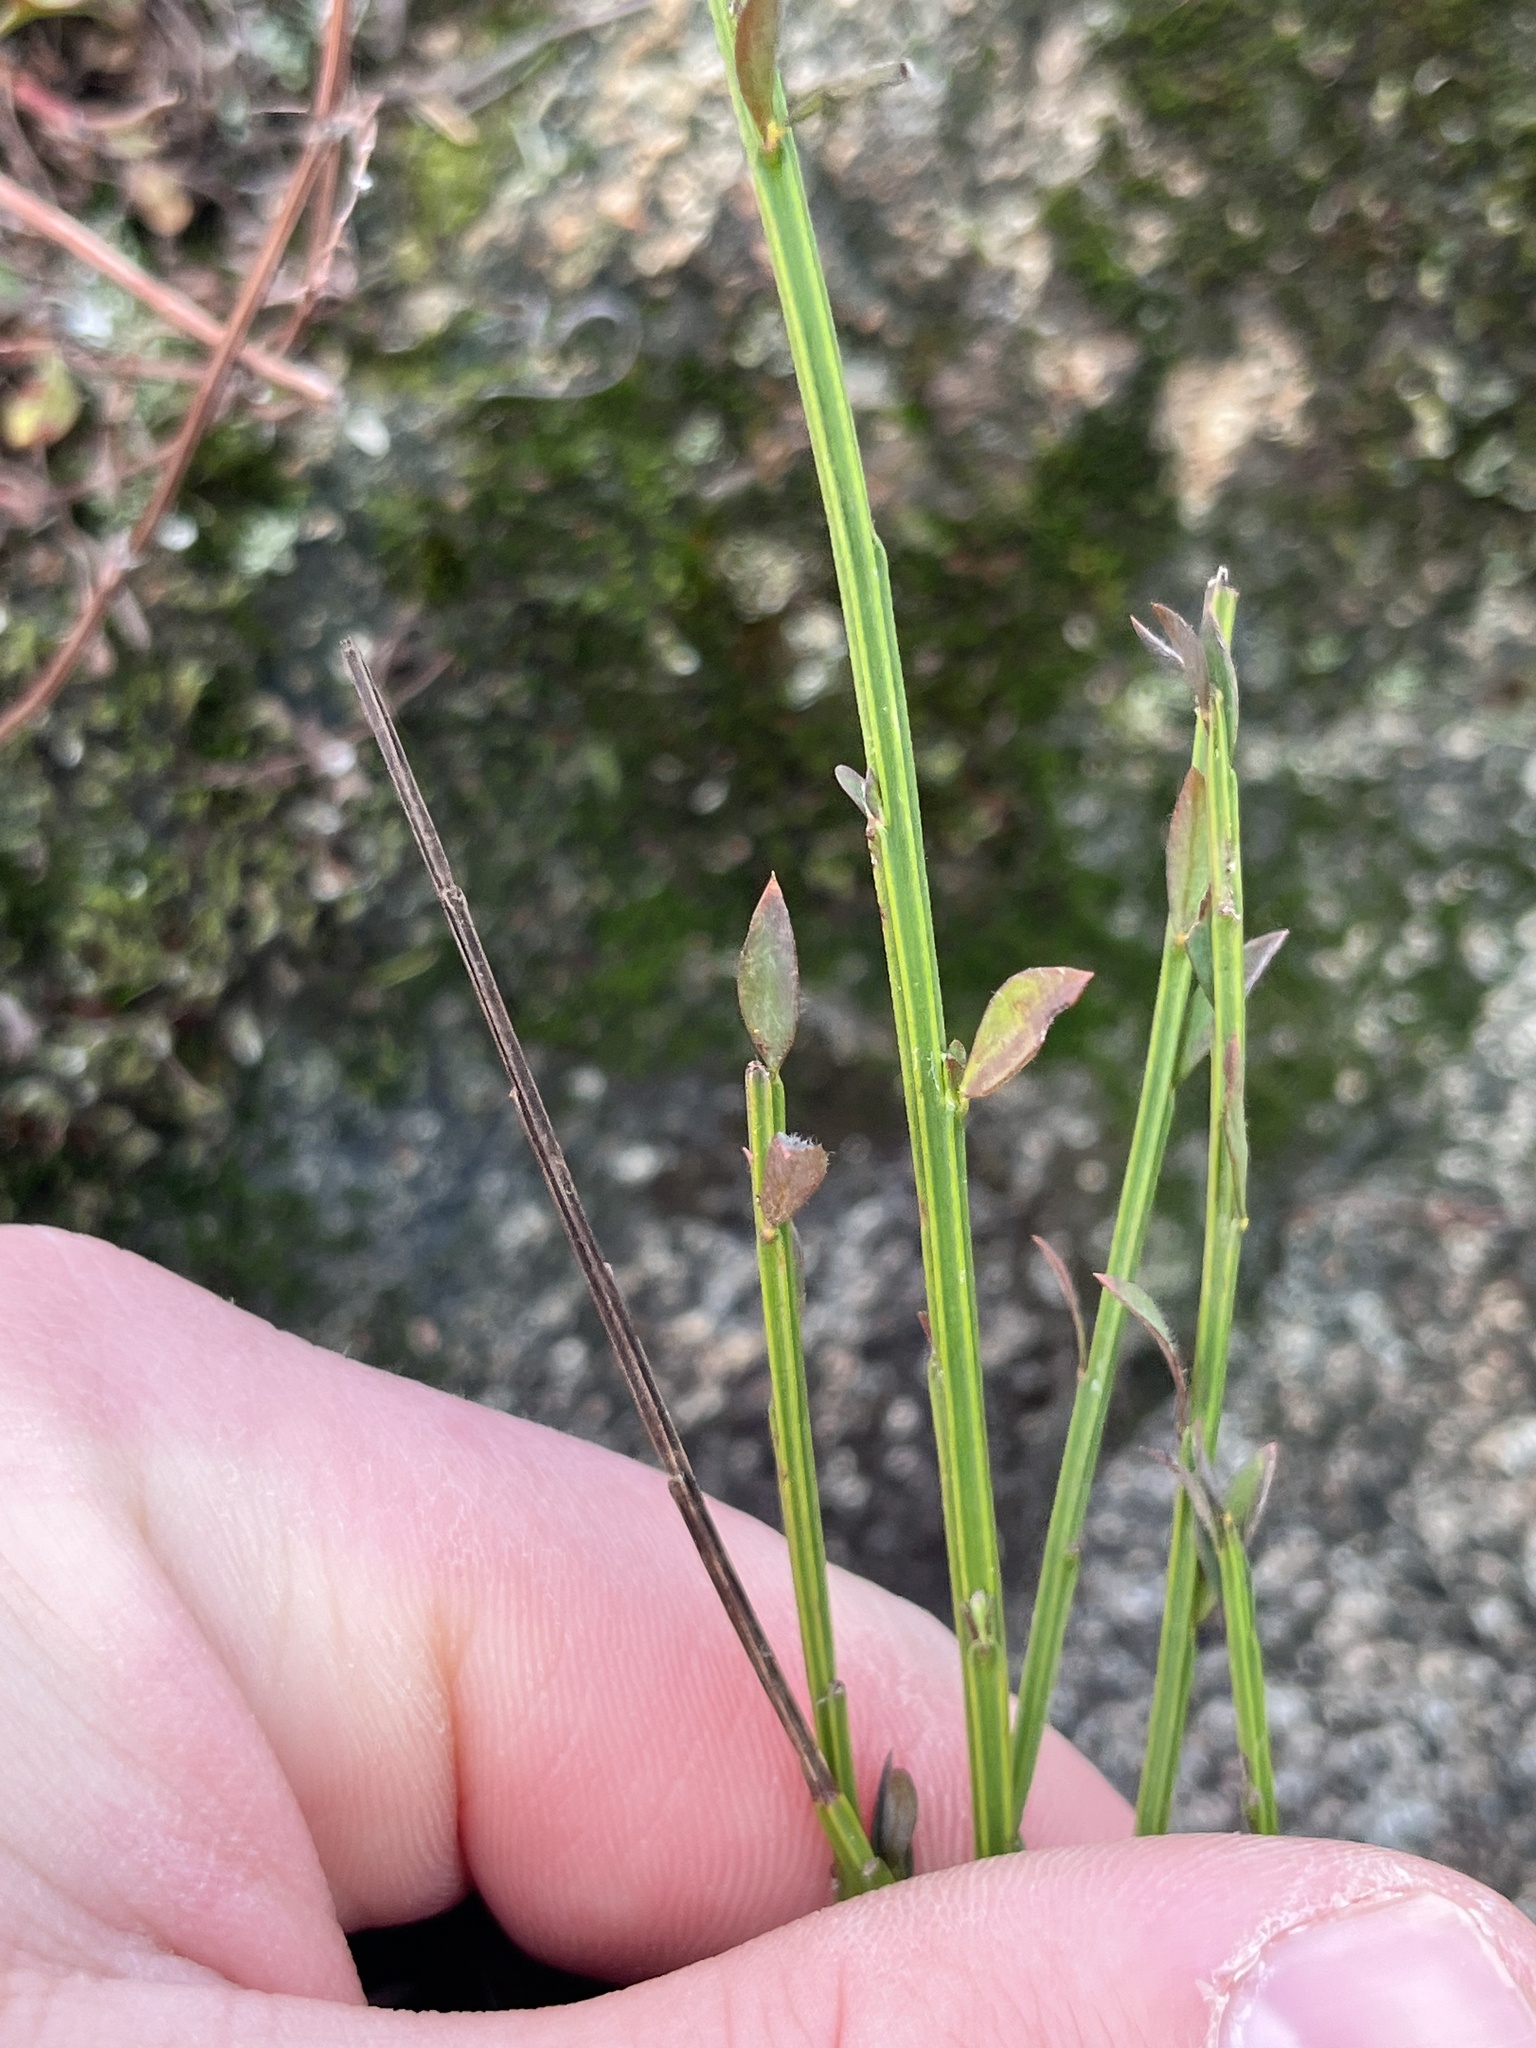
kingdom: Plantae
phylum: Tracheophyta
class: Magnoliopsida
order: Fabales
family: Fabaceae
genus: Cytisus
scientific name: Cytisus scoparius
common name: Scotch broom
